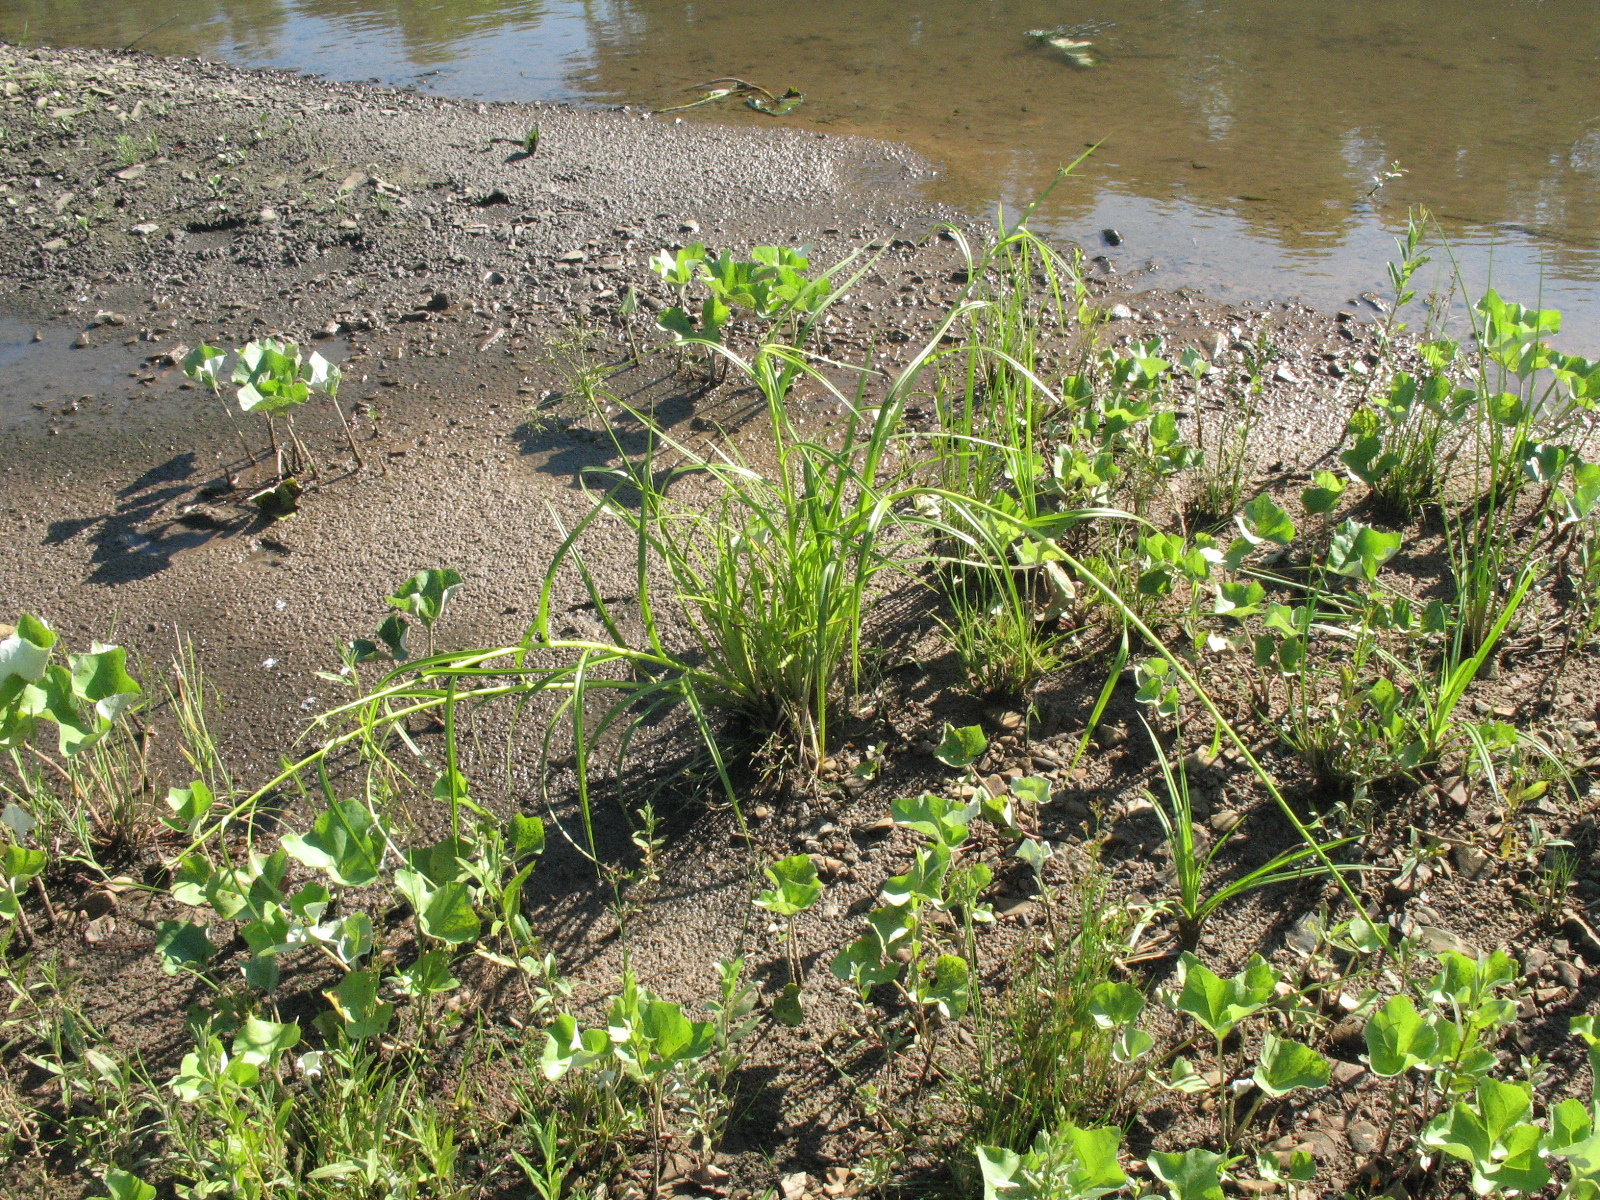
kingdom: Plantae
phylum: Tracheophyta
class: Liliopsida
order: Poales
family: Cyperaceae
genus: Scirpus
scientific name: Scirpus radicans
